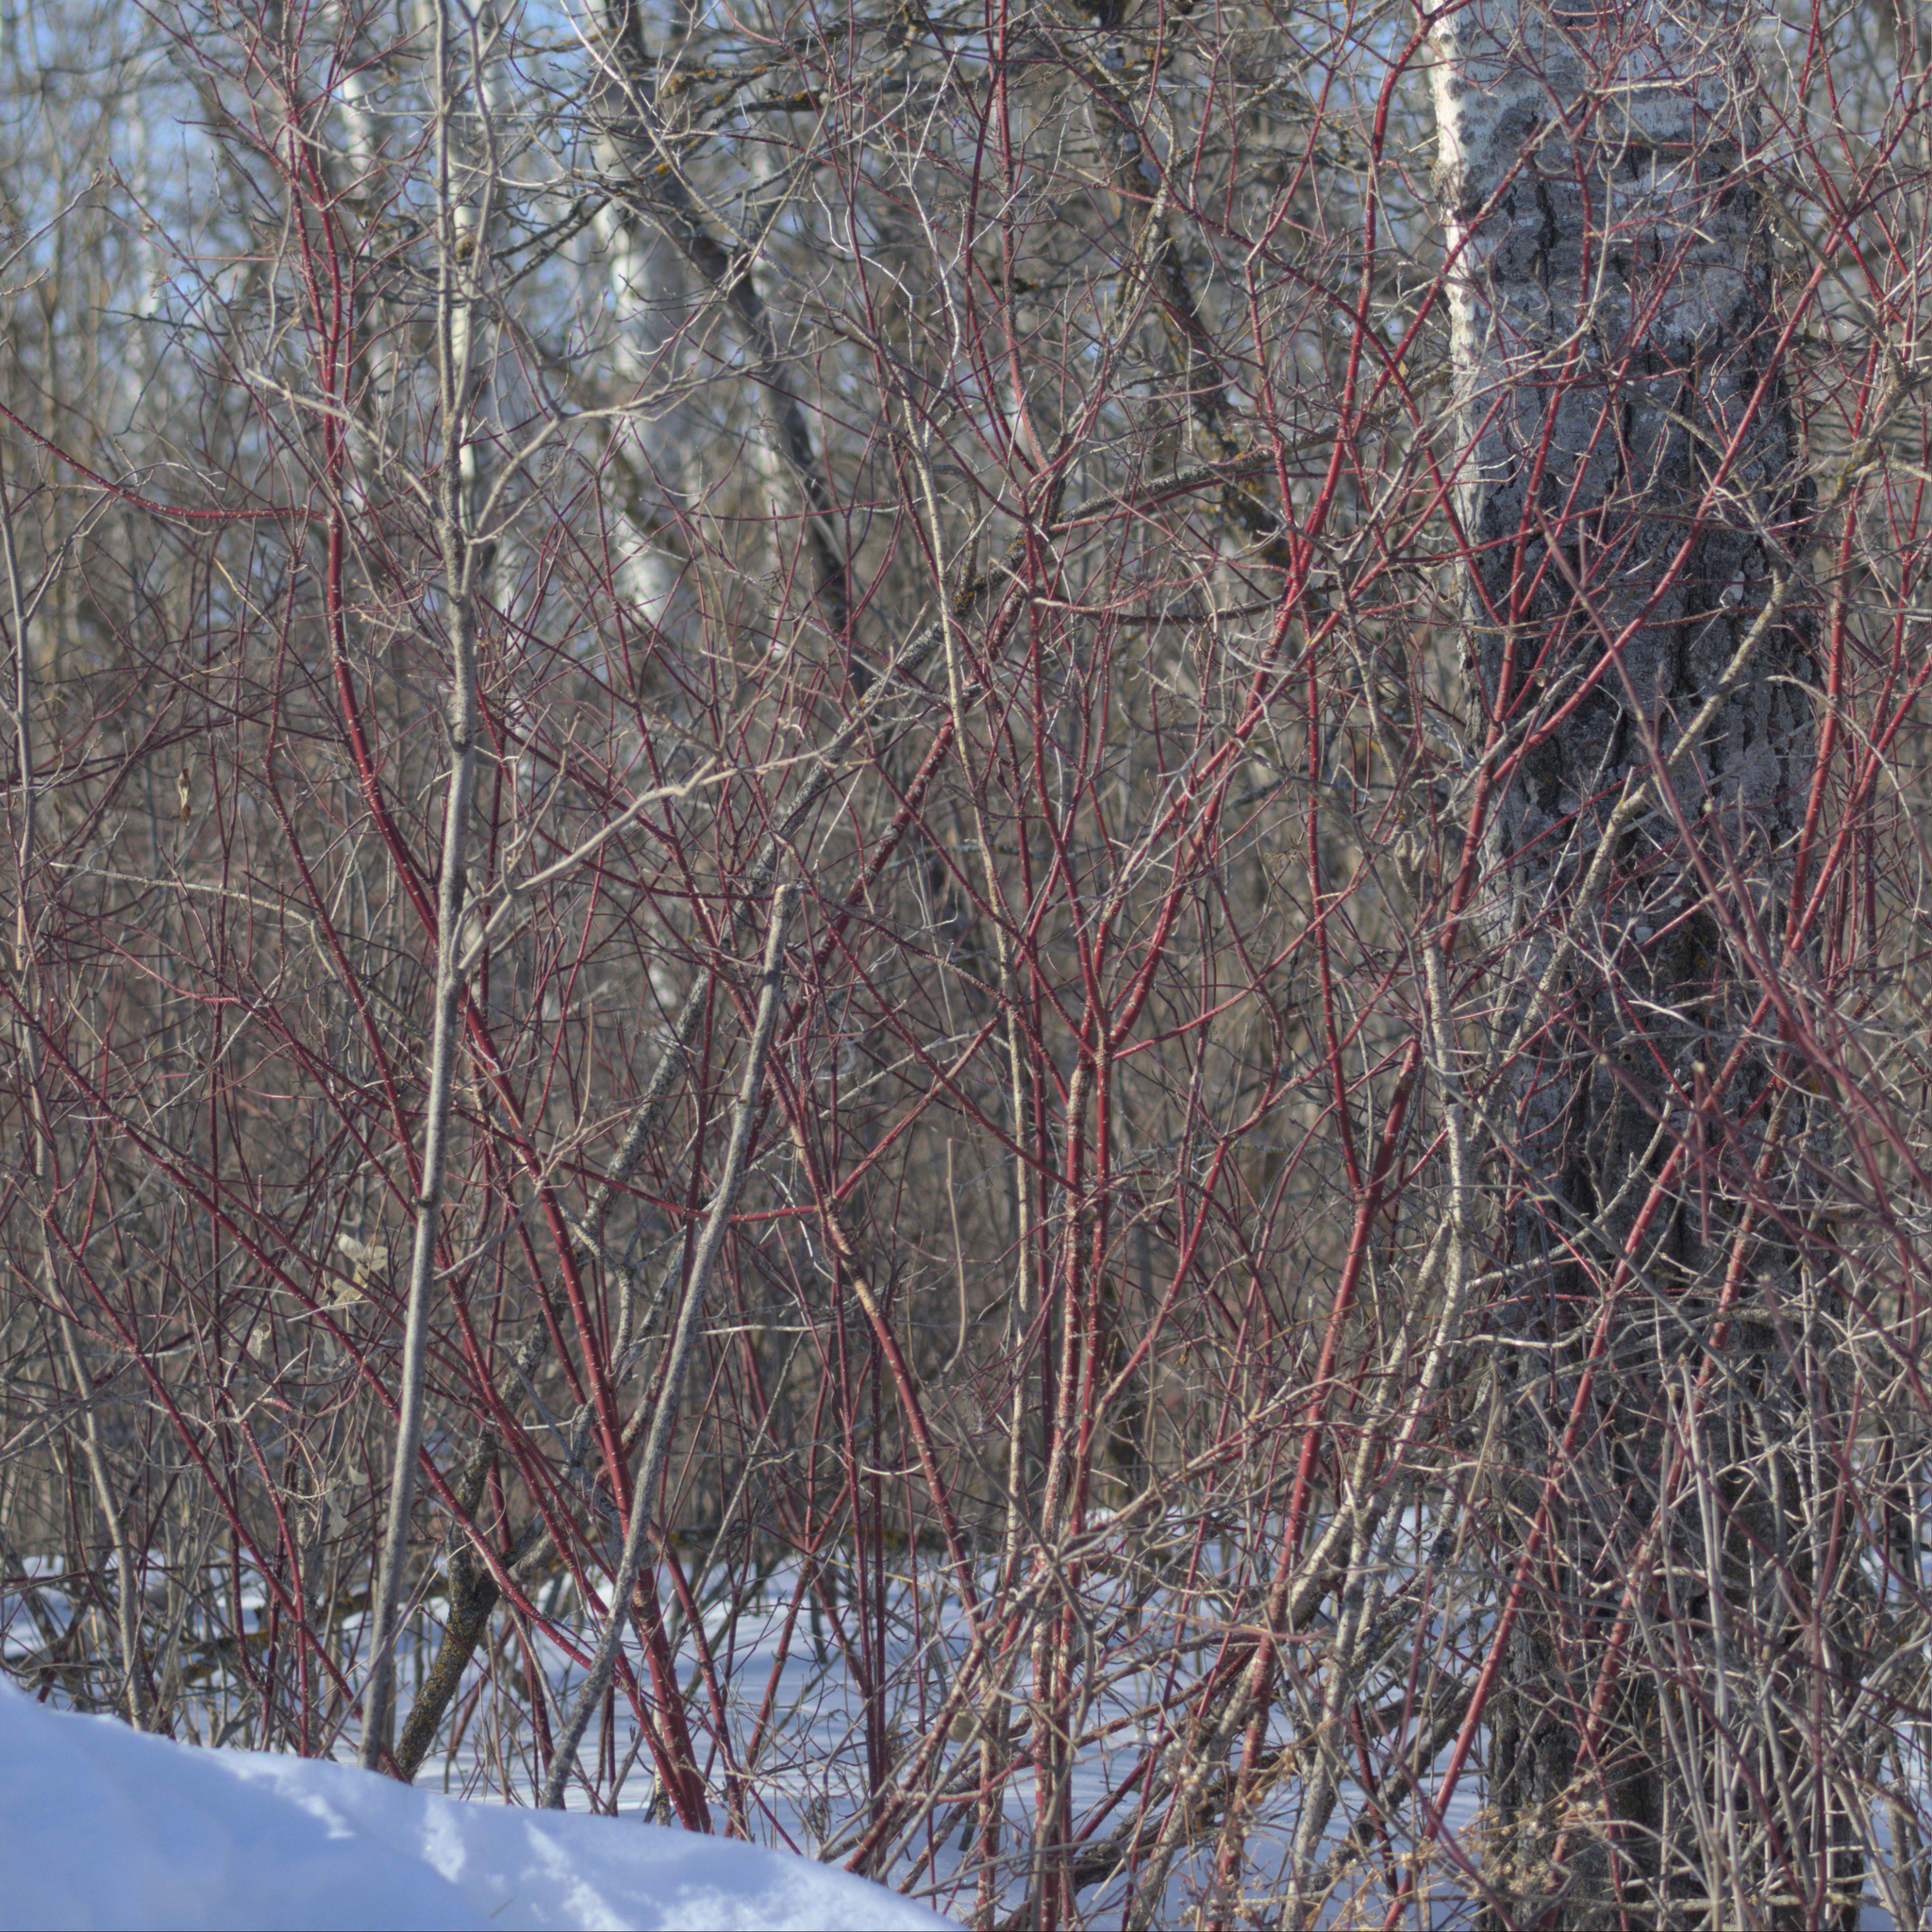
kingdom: Plantae
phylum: Tracheophyta
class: Magnoliopsida
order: Cornales
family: Cornaceae
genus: Cornus
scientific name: Cornus sericea
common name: Red-osier dogwood
